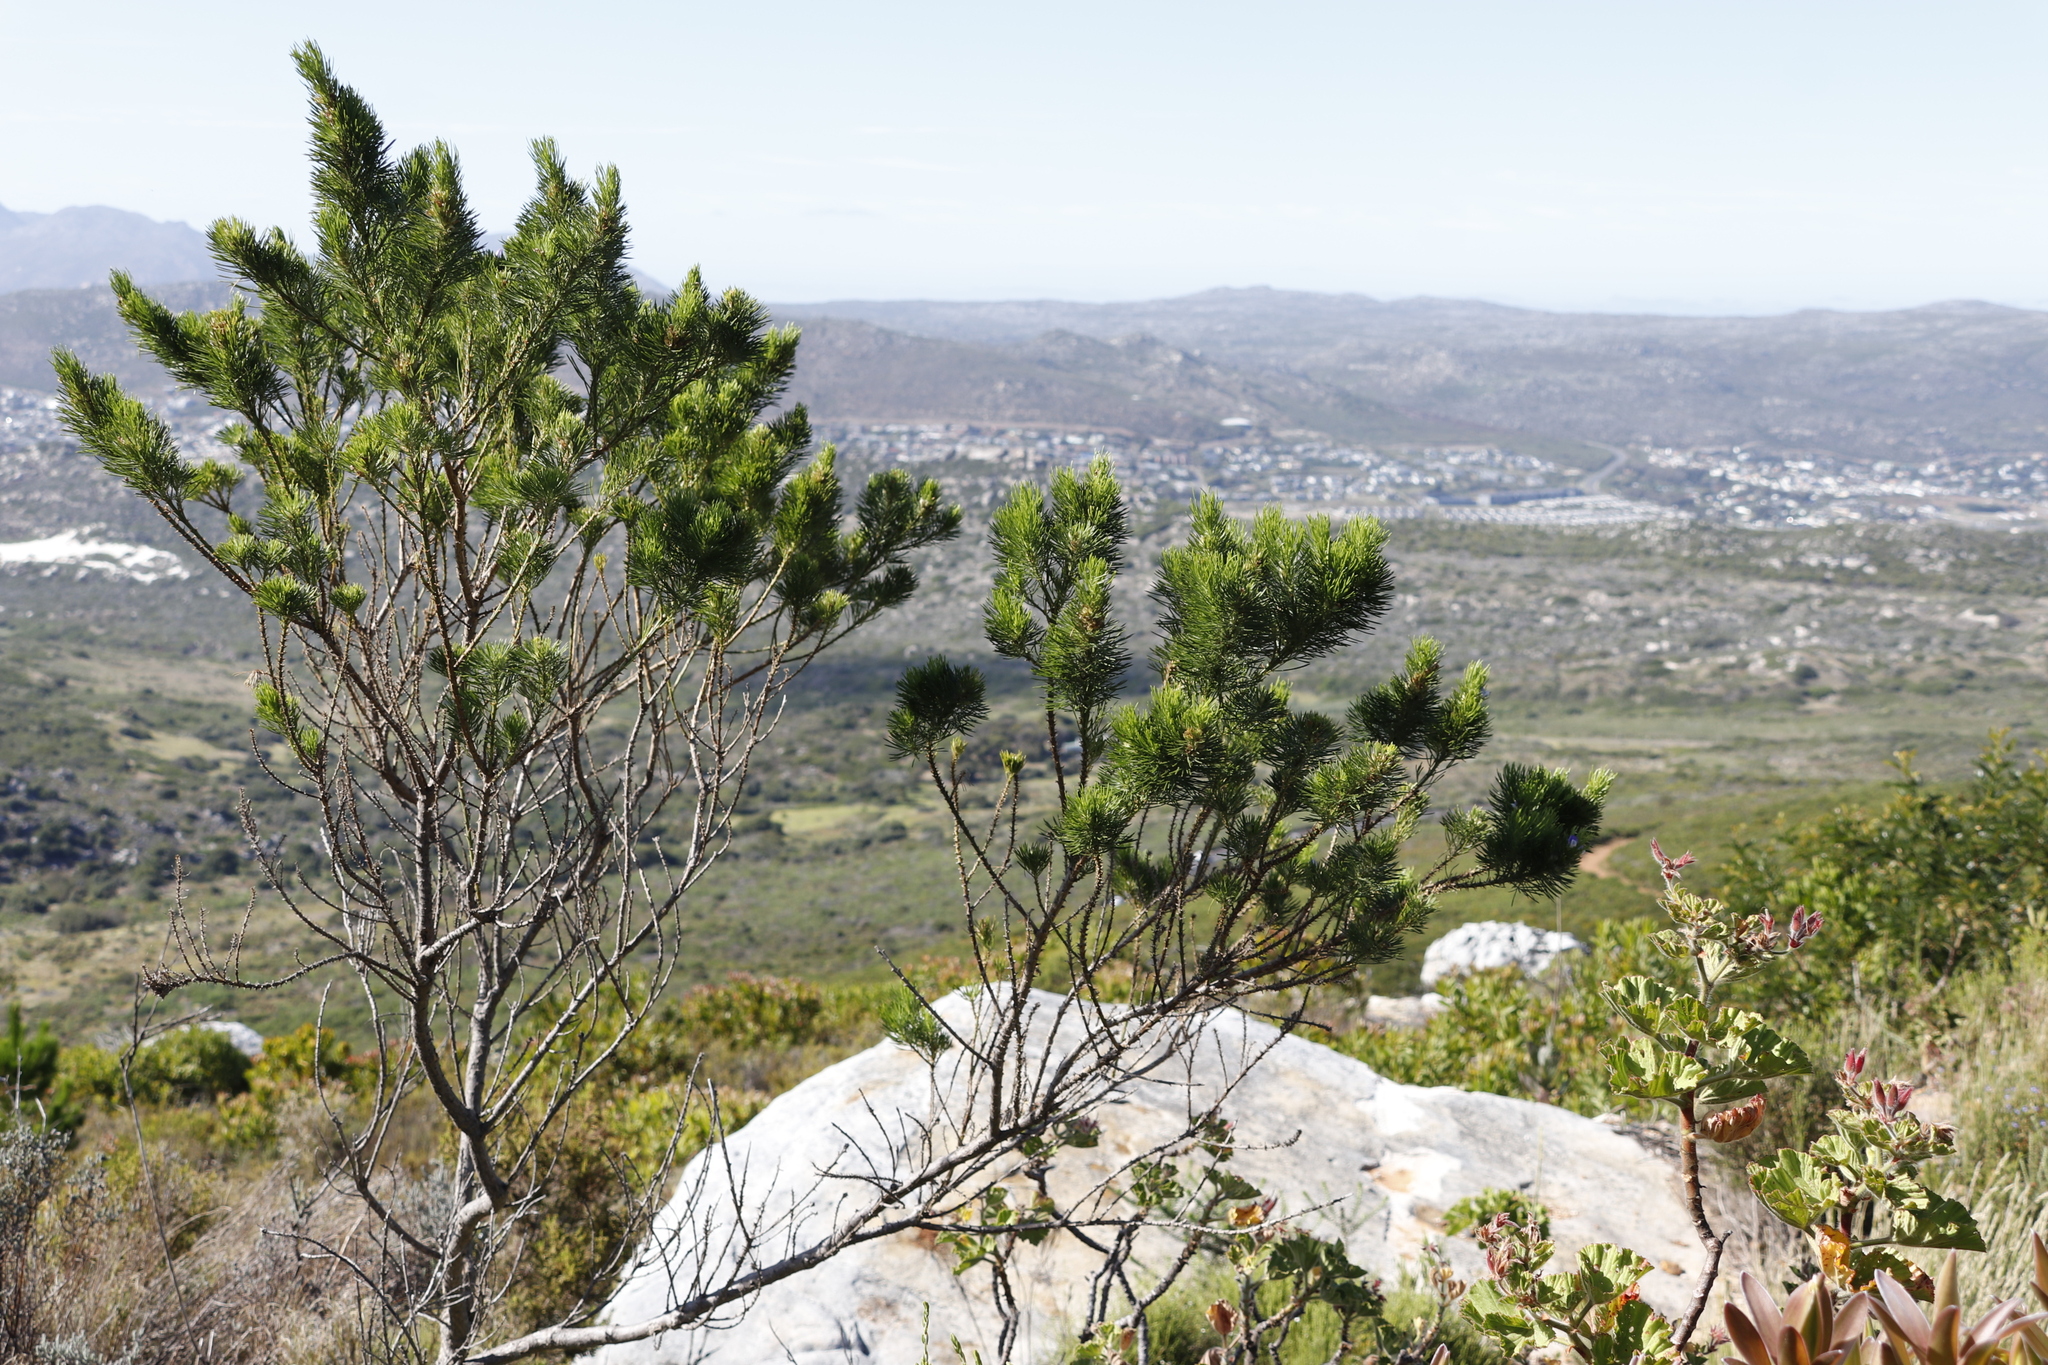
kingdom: Plantae
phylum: Tracheophyta
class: Magnoliopsida
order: Fabales
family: Fabaceae
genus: Psoralea
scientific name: Psoralea pinnata
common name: African scurfpea
